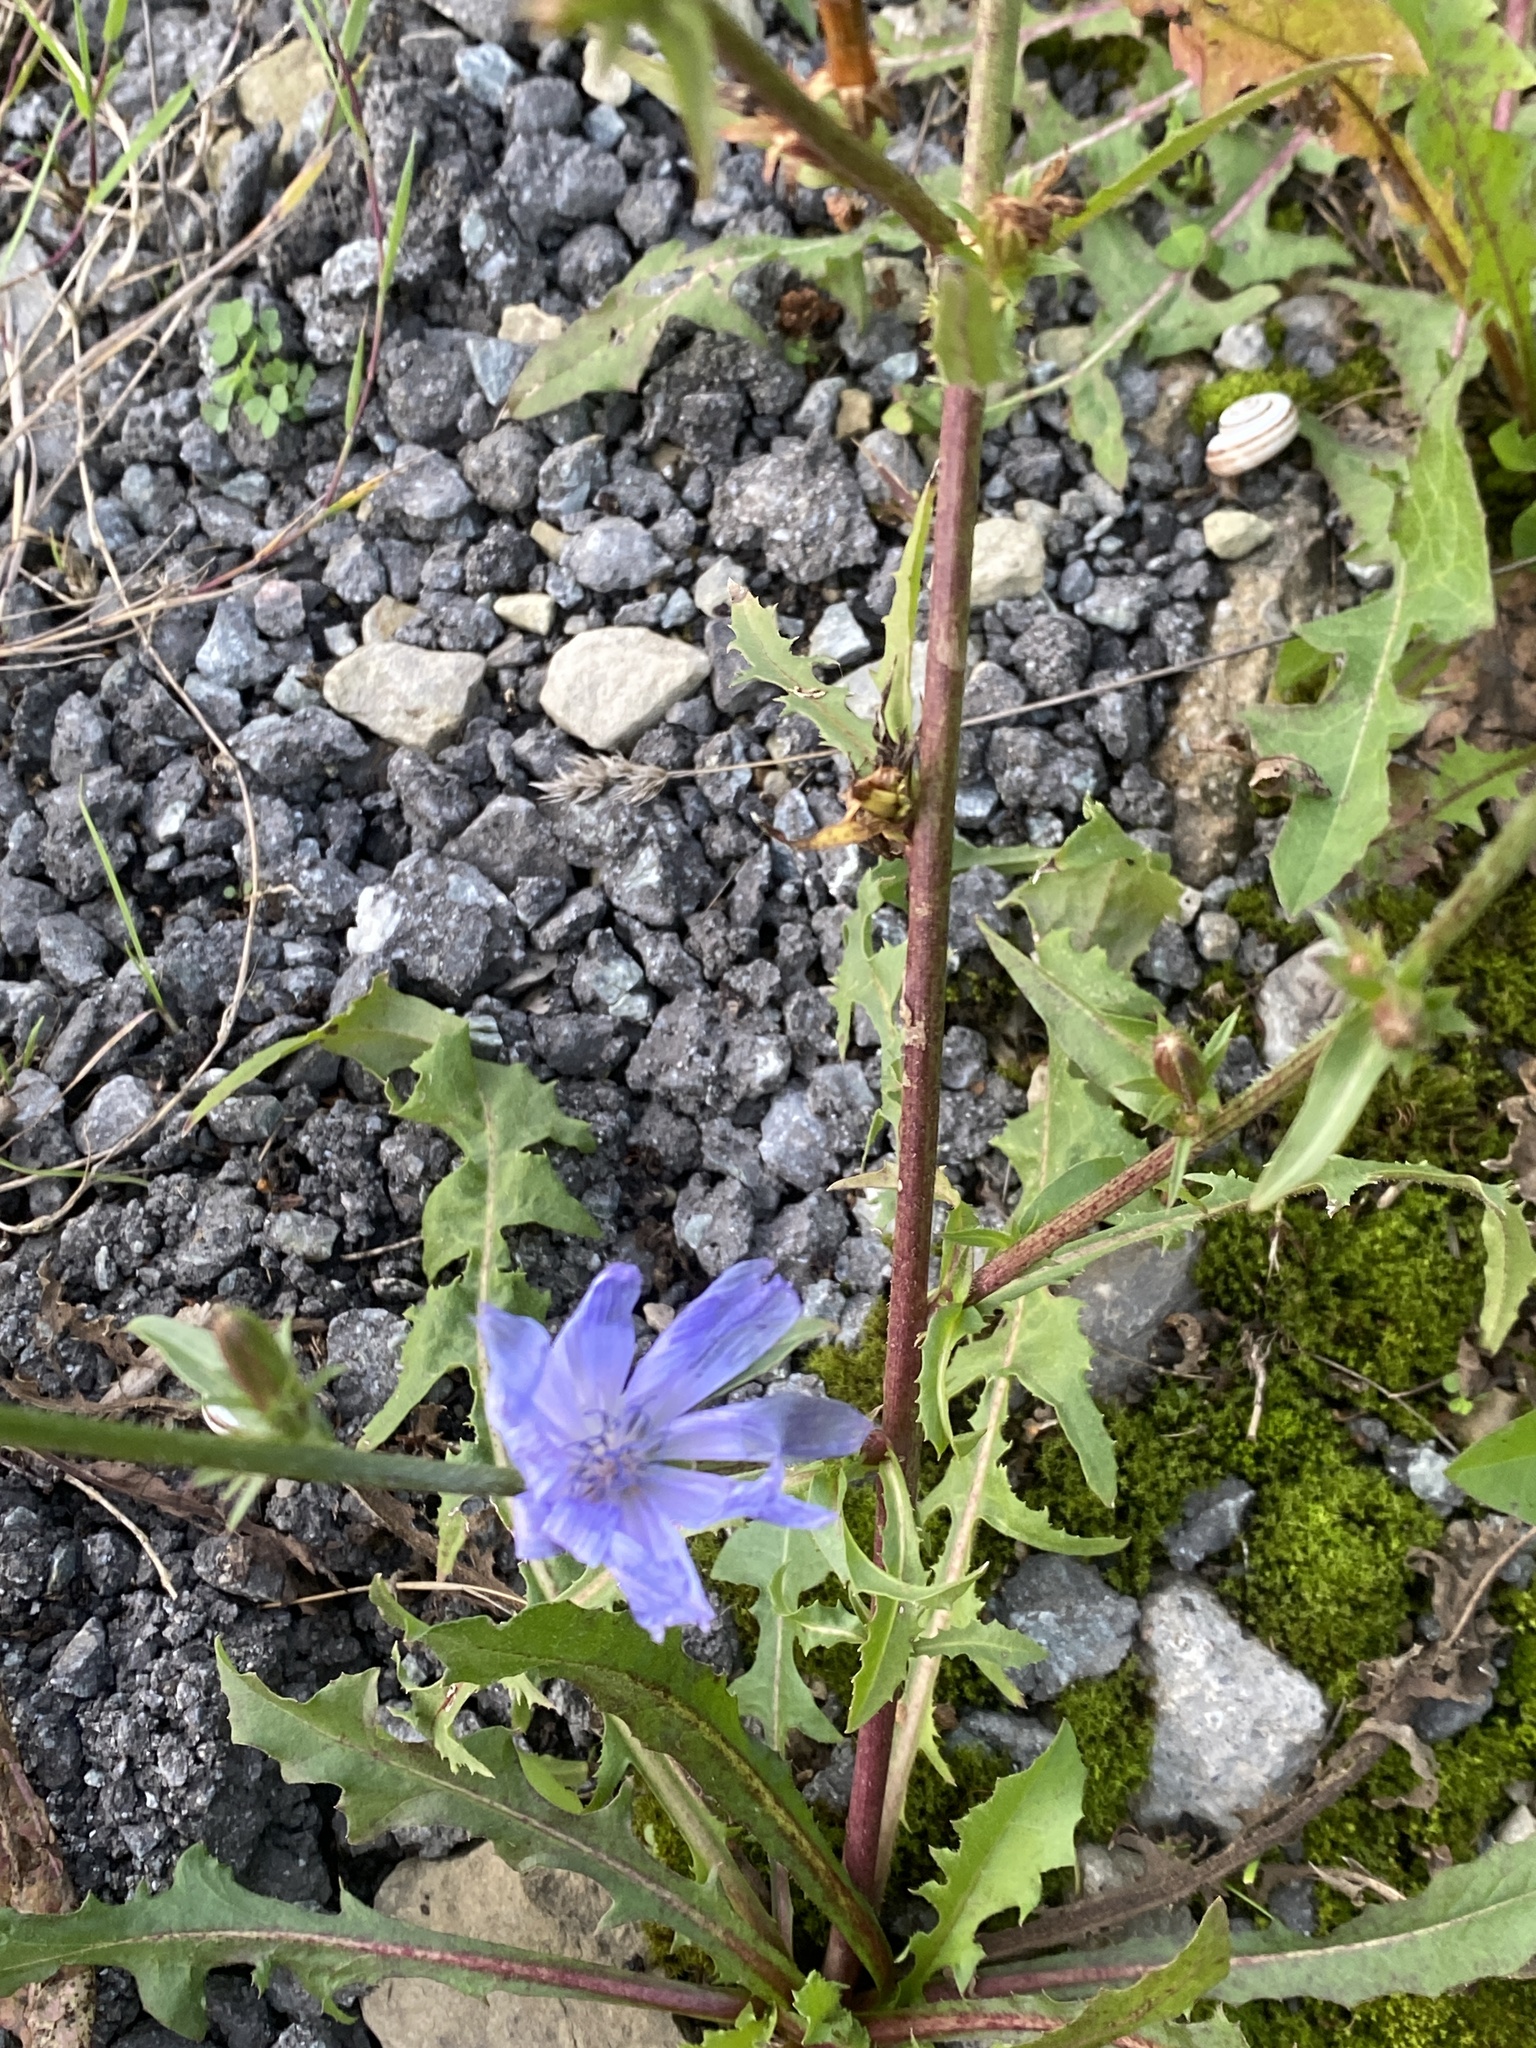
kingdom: Plantae
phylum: Tracheophyta
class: Magnoliopsida
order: Asterales
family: Asteraceae
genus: Cichorium
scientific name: Cichorium intybus
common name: Chicory
